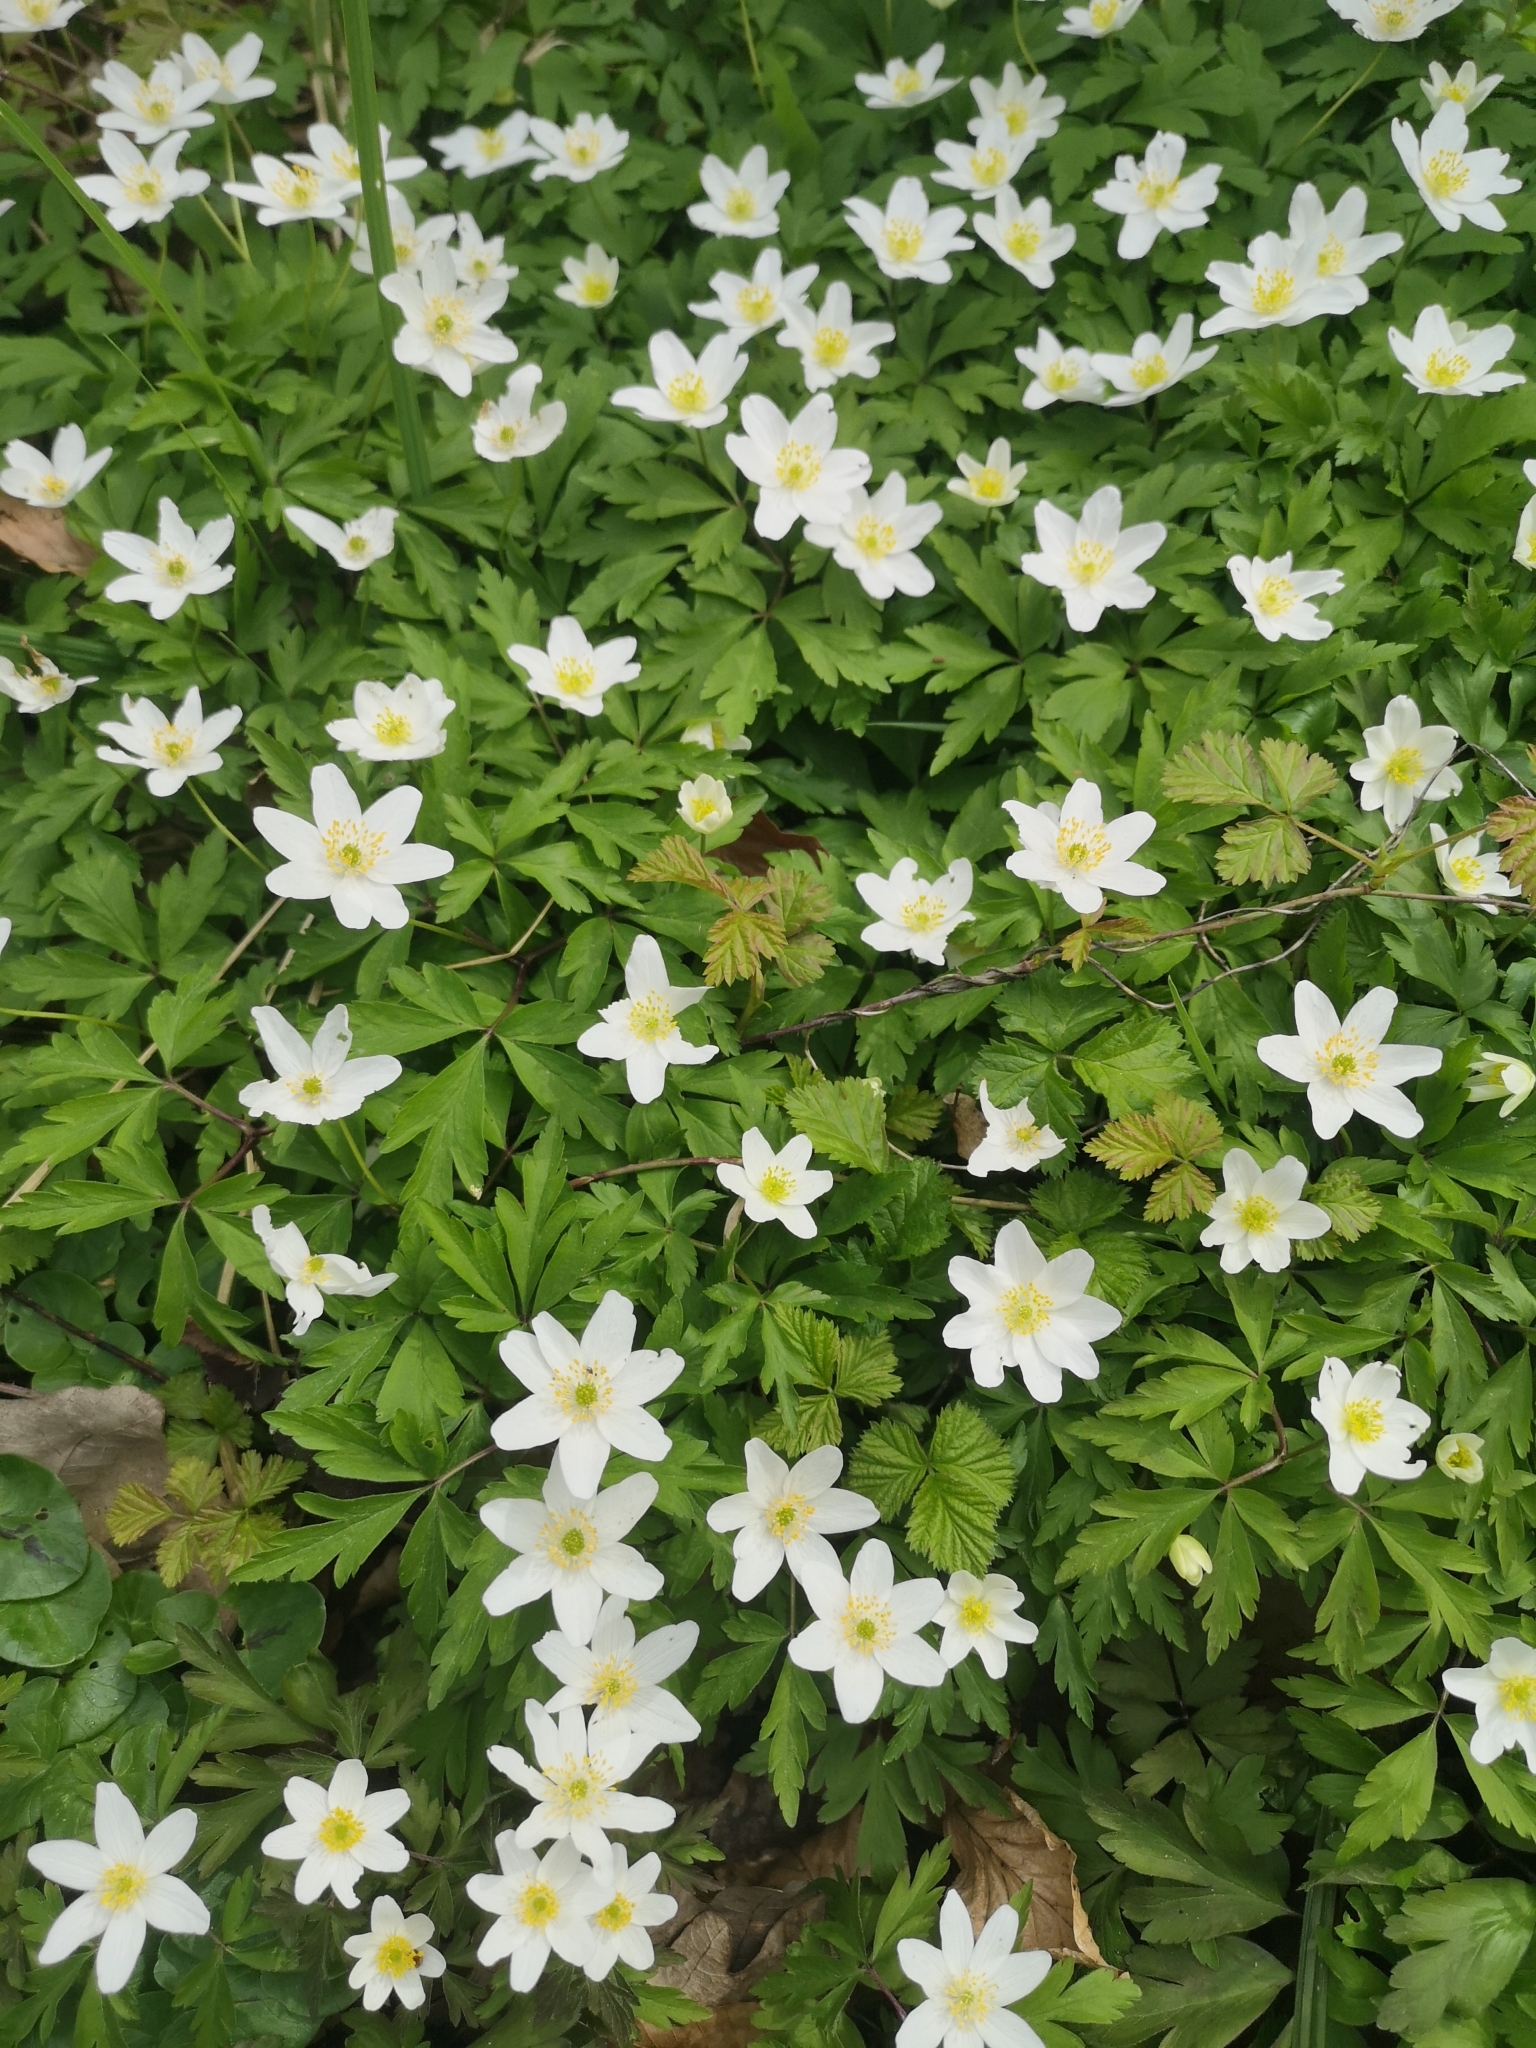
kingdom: Plantae
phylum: Tracheophyta
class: Magnoliopsida
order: Ranunculales
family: Ranunculaceae
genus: Anemone
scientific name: Anemone nemorosa
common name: Wood anemone
